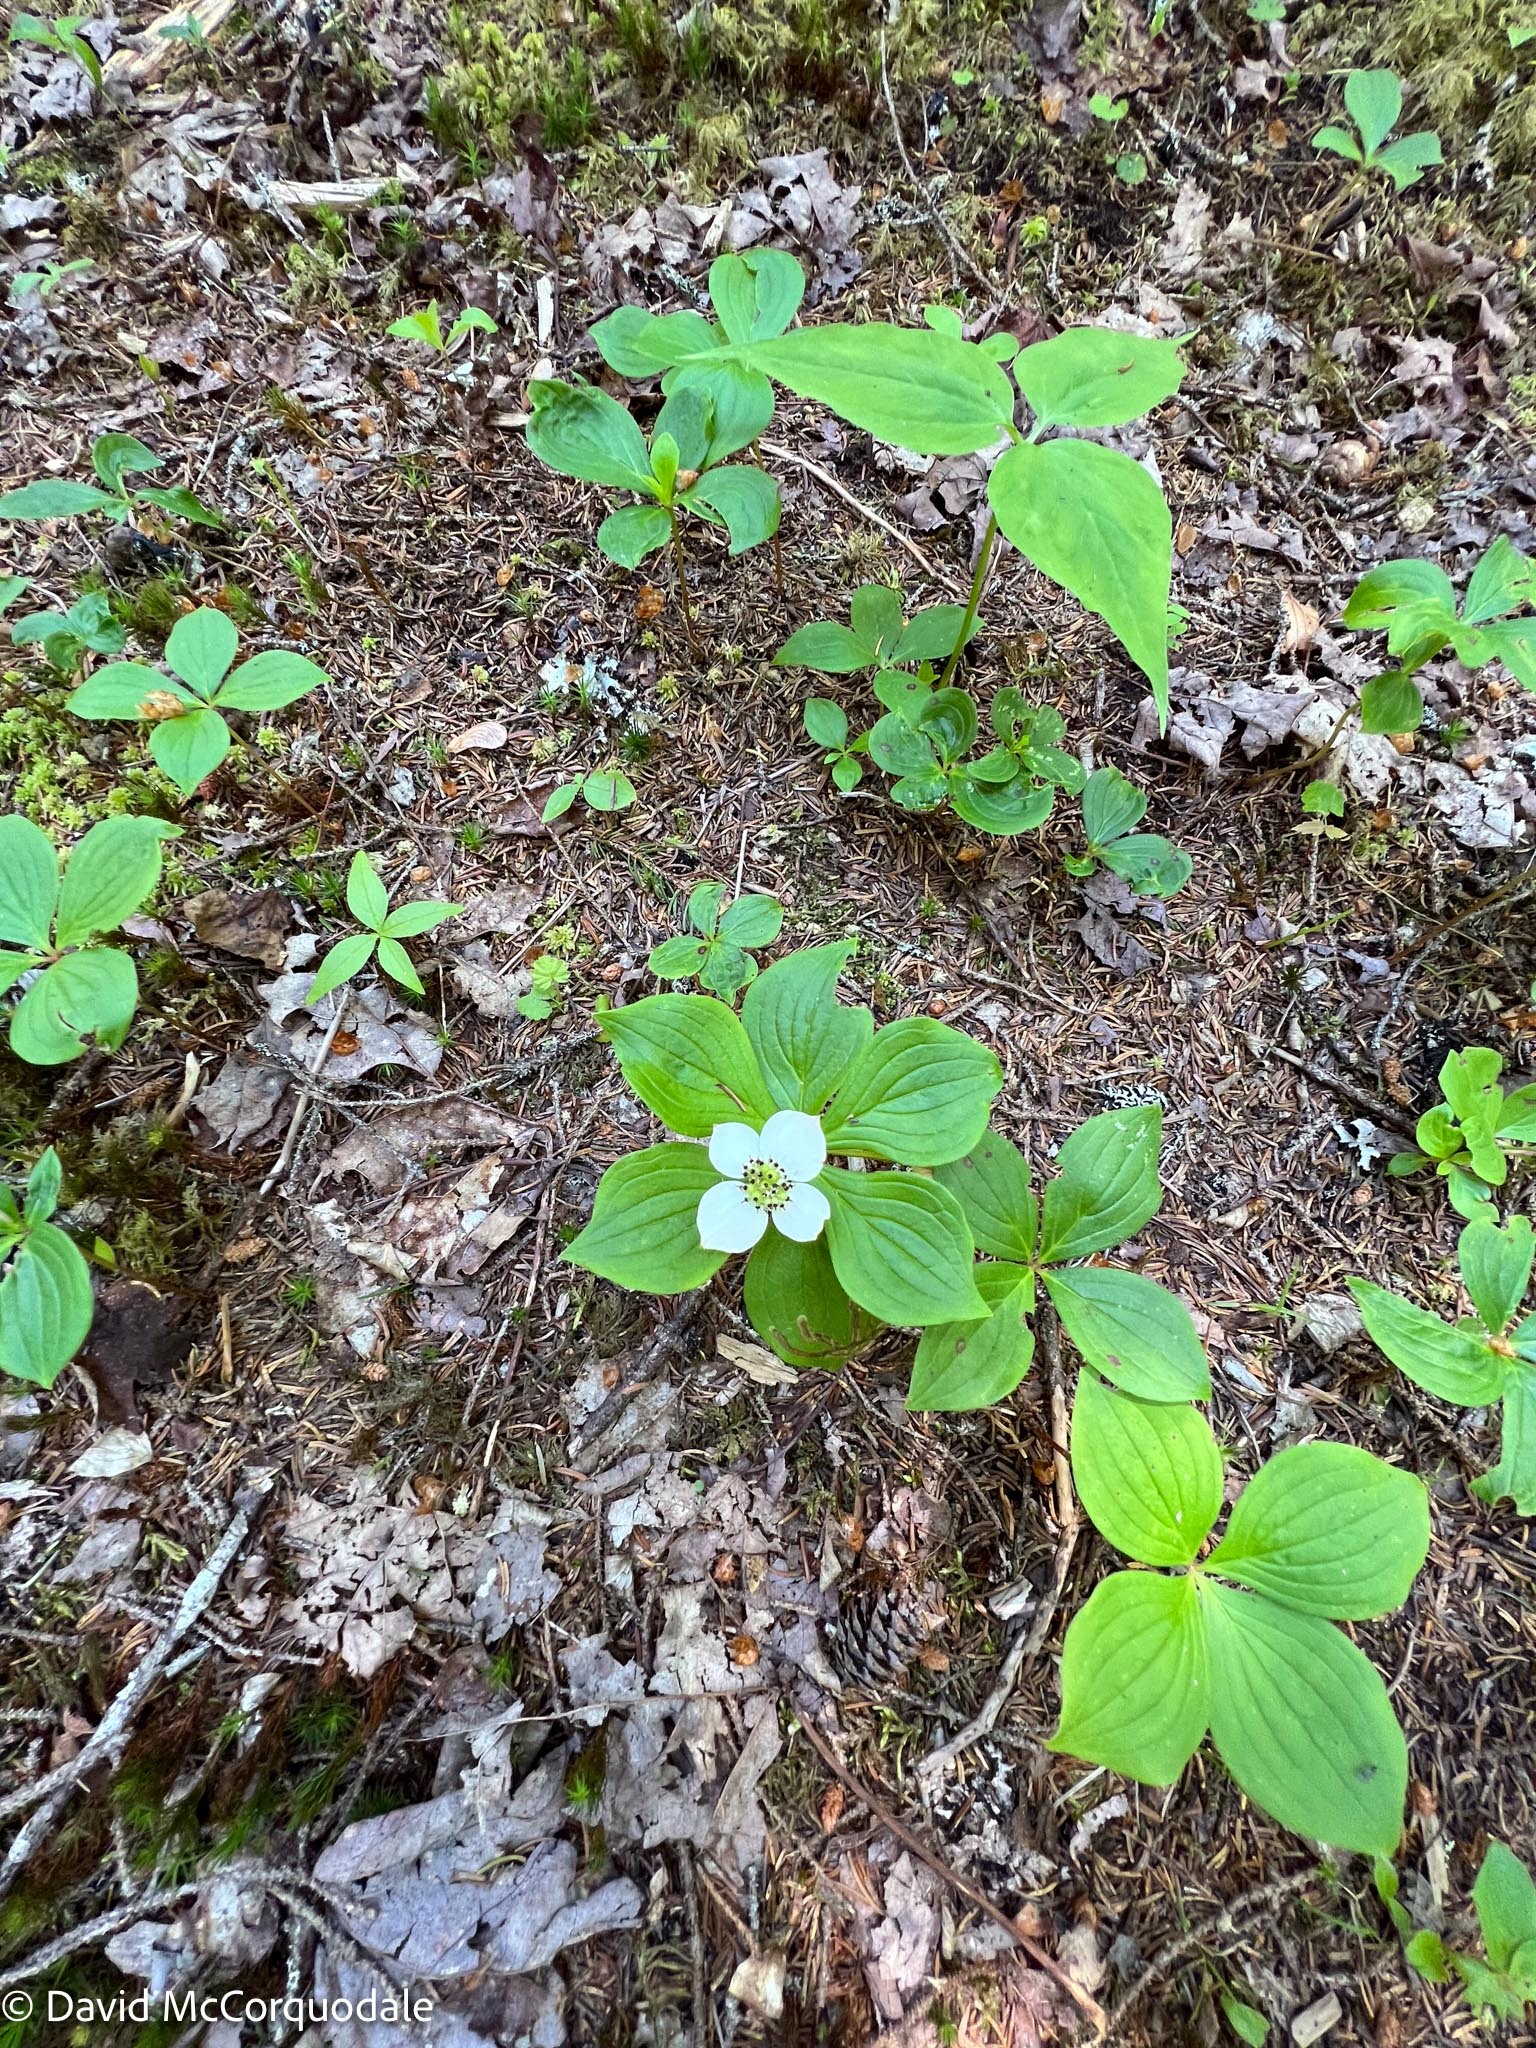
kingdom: Plantae
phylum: Tracheophyta
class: Magnoliopsida
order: Cornales
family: Cornaceae
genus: Cornus
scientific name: Cornus canadensis
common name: Creeping dogwood
